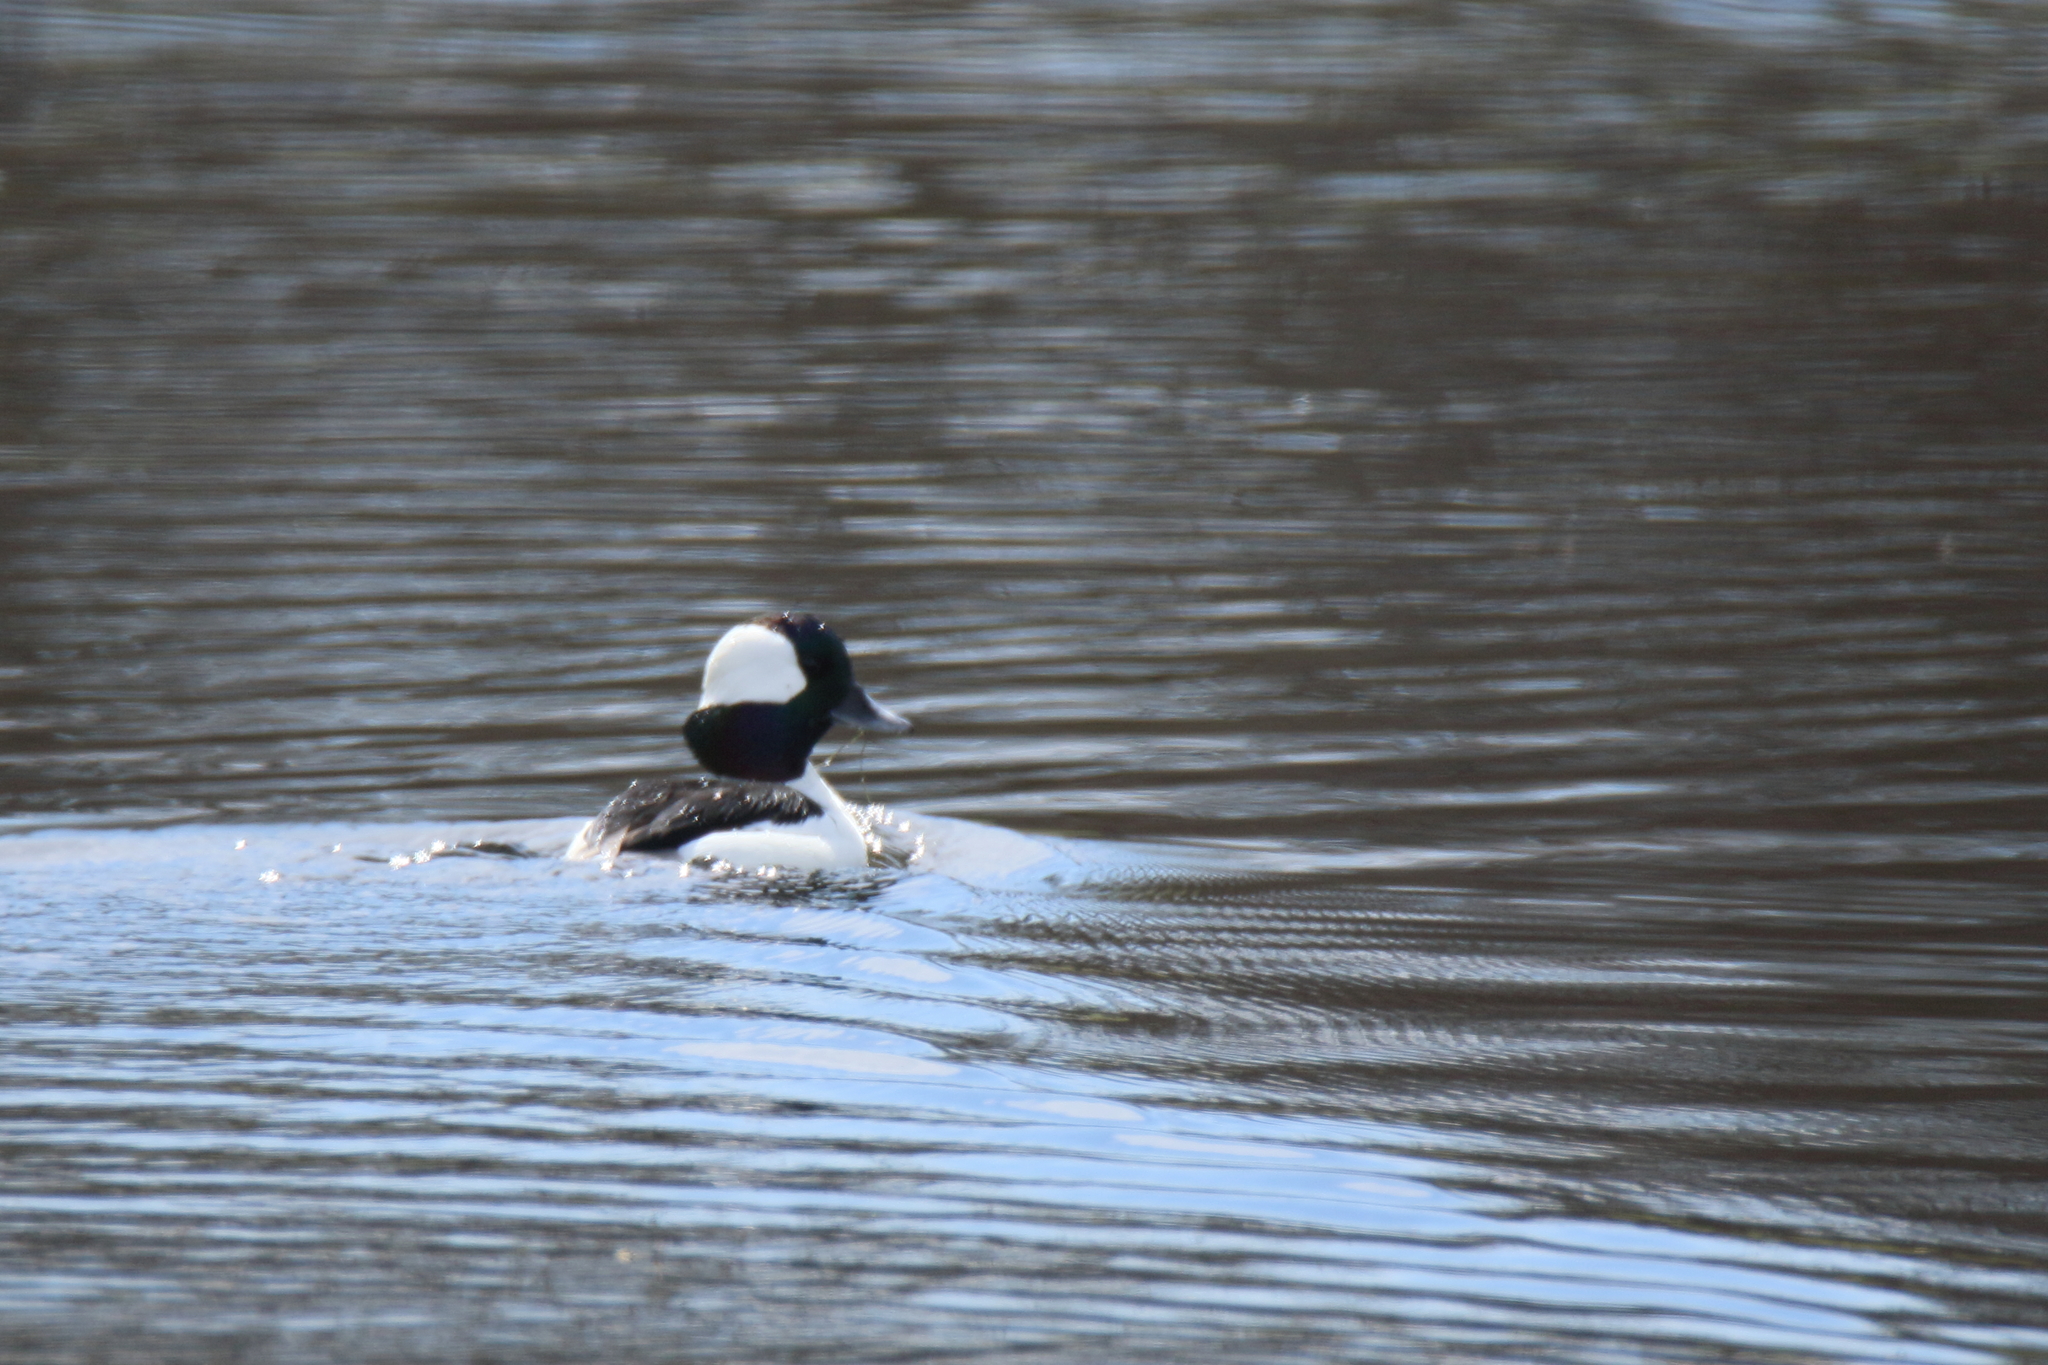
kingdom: Animalia
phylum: Chordata
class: Aves
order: Anseriformes
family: Anatidae
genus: Bucephala
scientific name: Bucephala albeola
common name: Bufflehead
